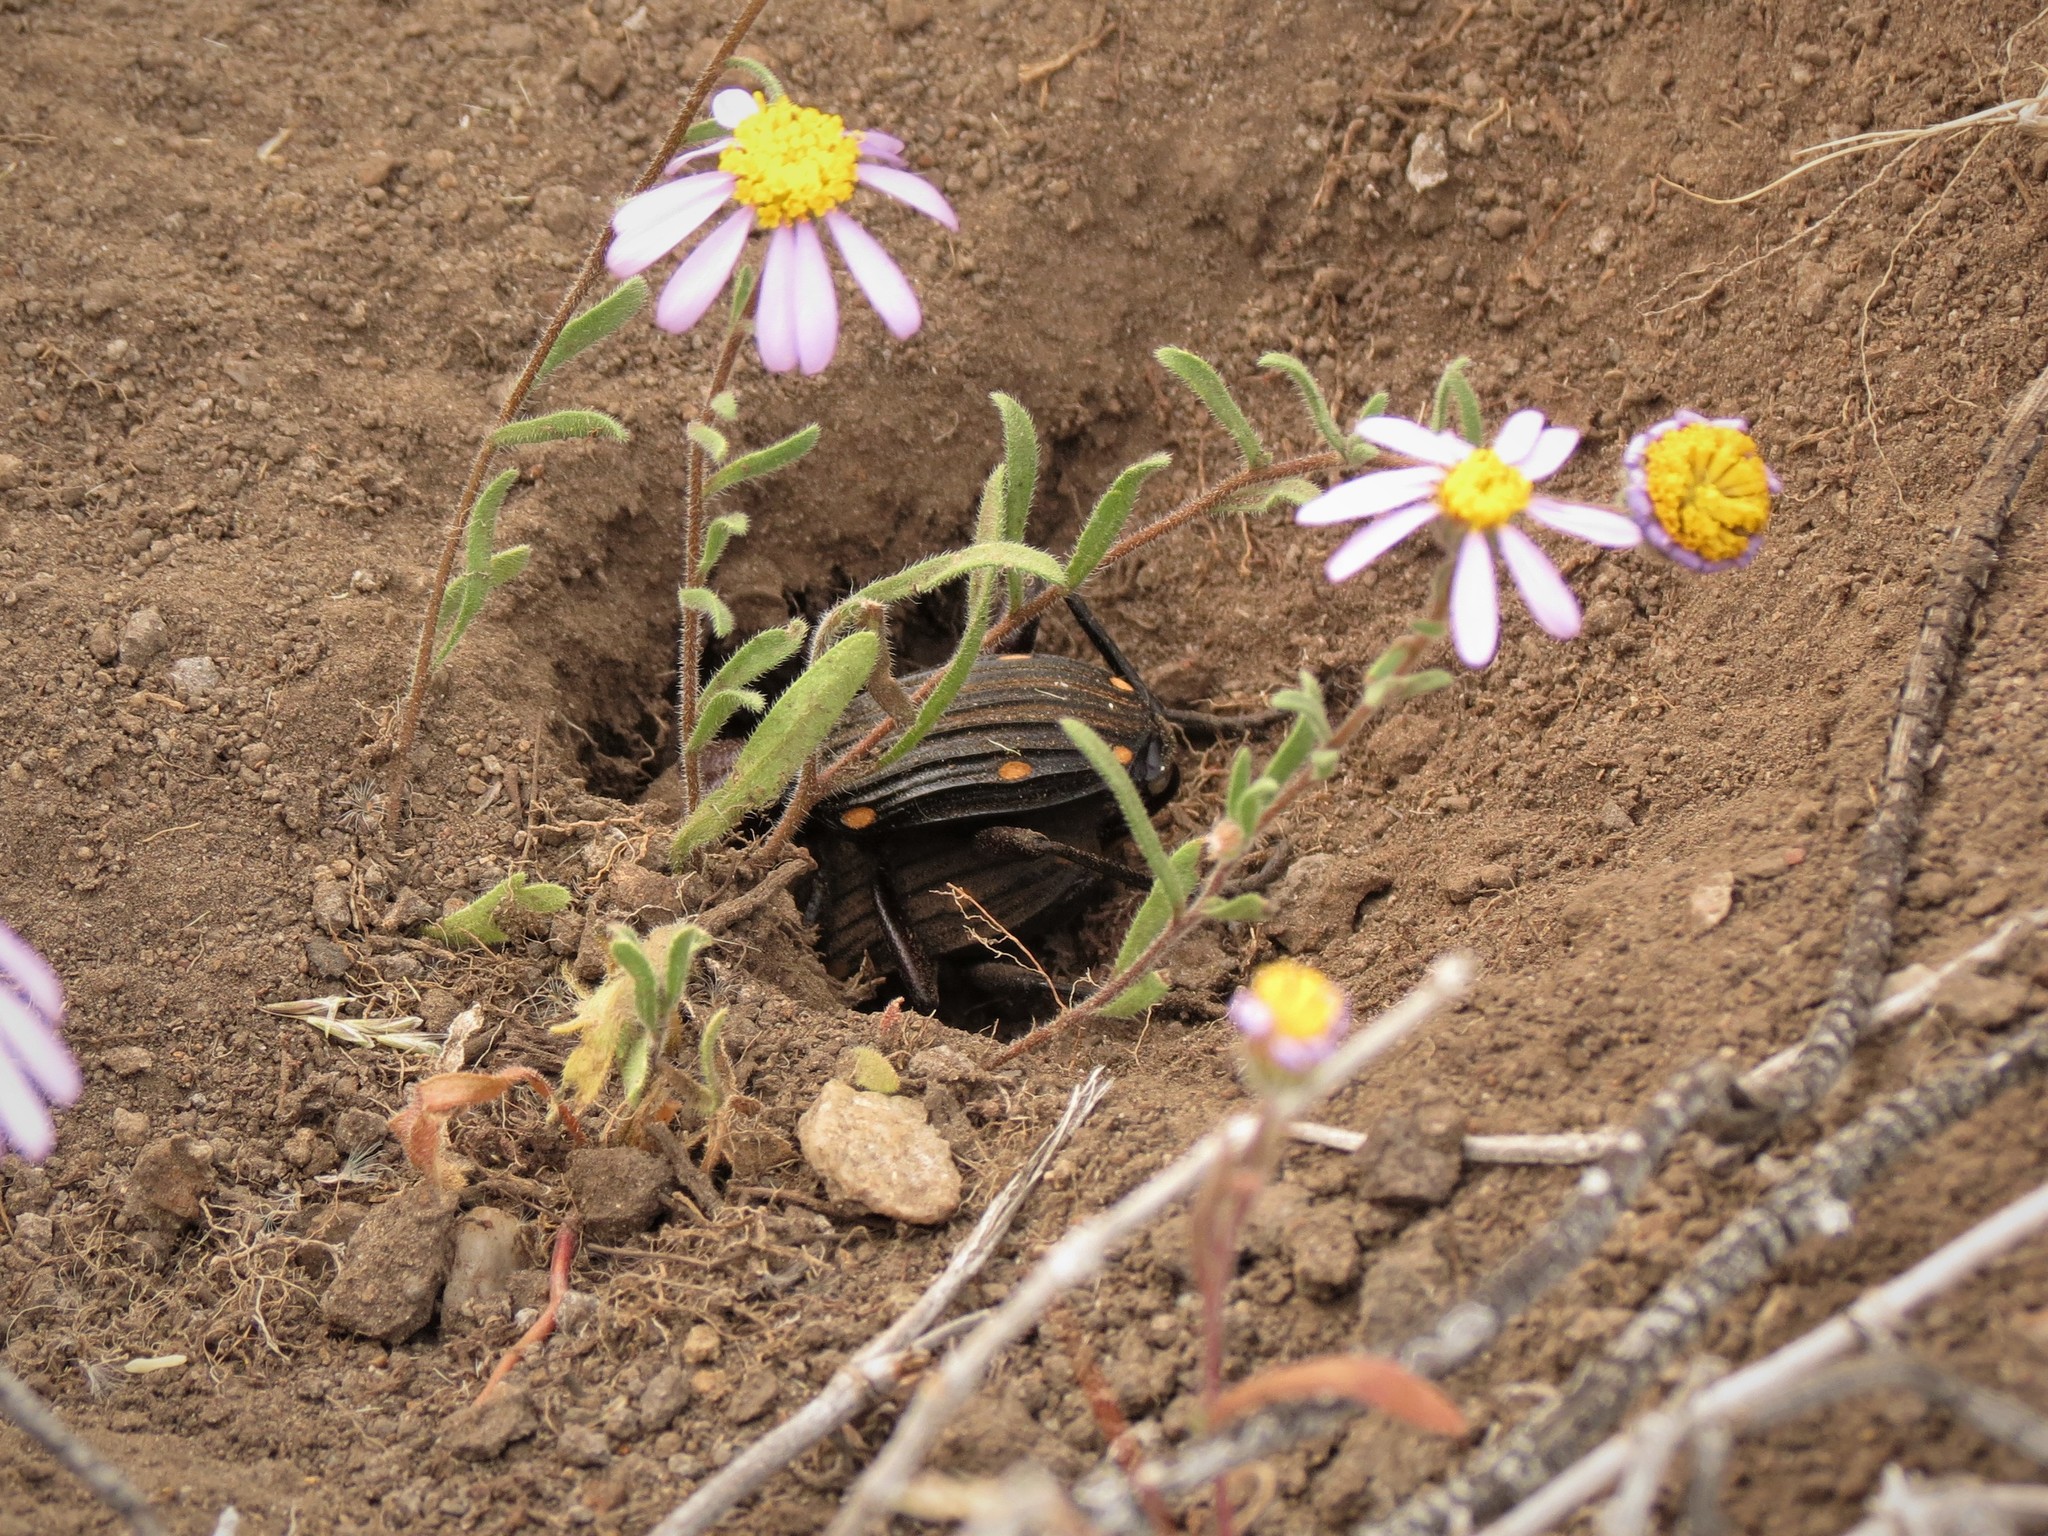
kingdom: Animalia
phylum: Arthropoda
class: Insecta
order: Coleoptera
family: Carabidae
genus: Anthia
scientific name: Anthia decemguttata
